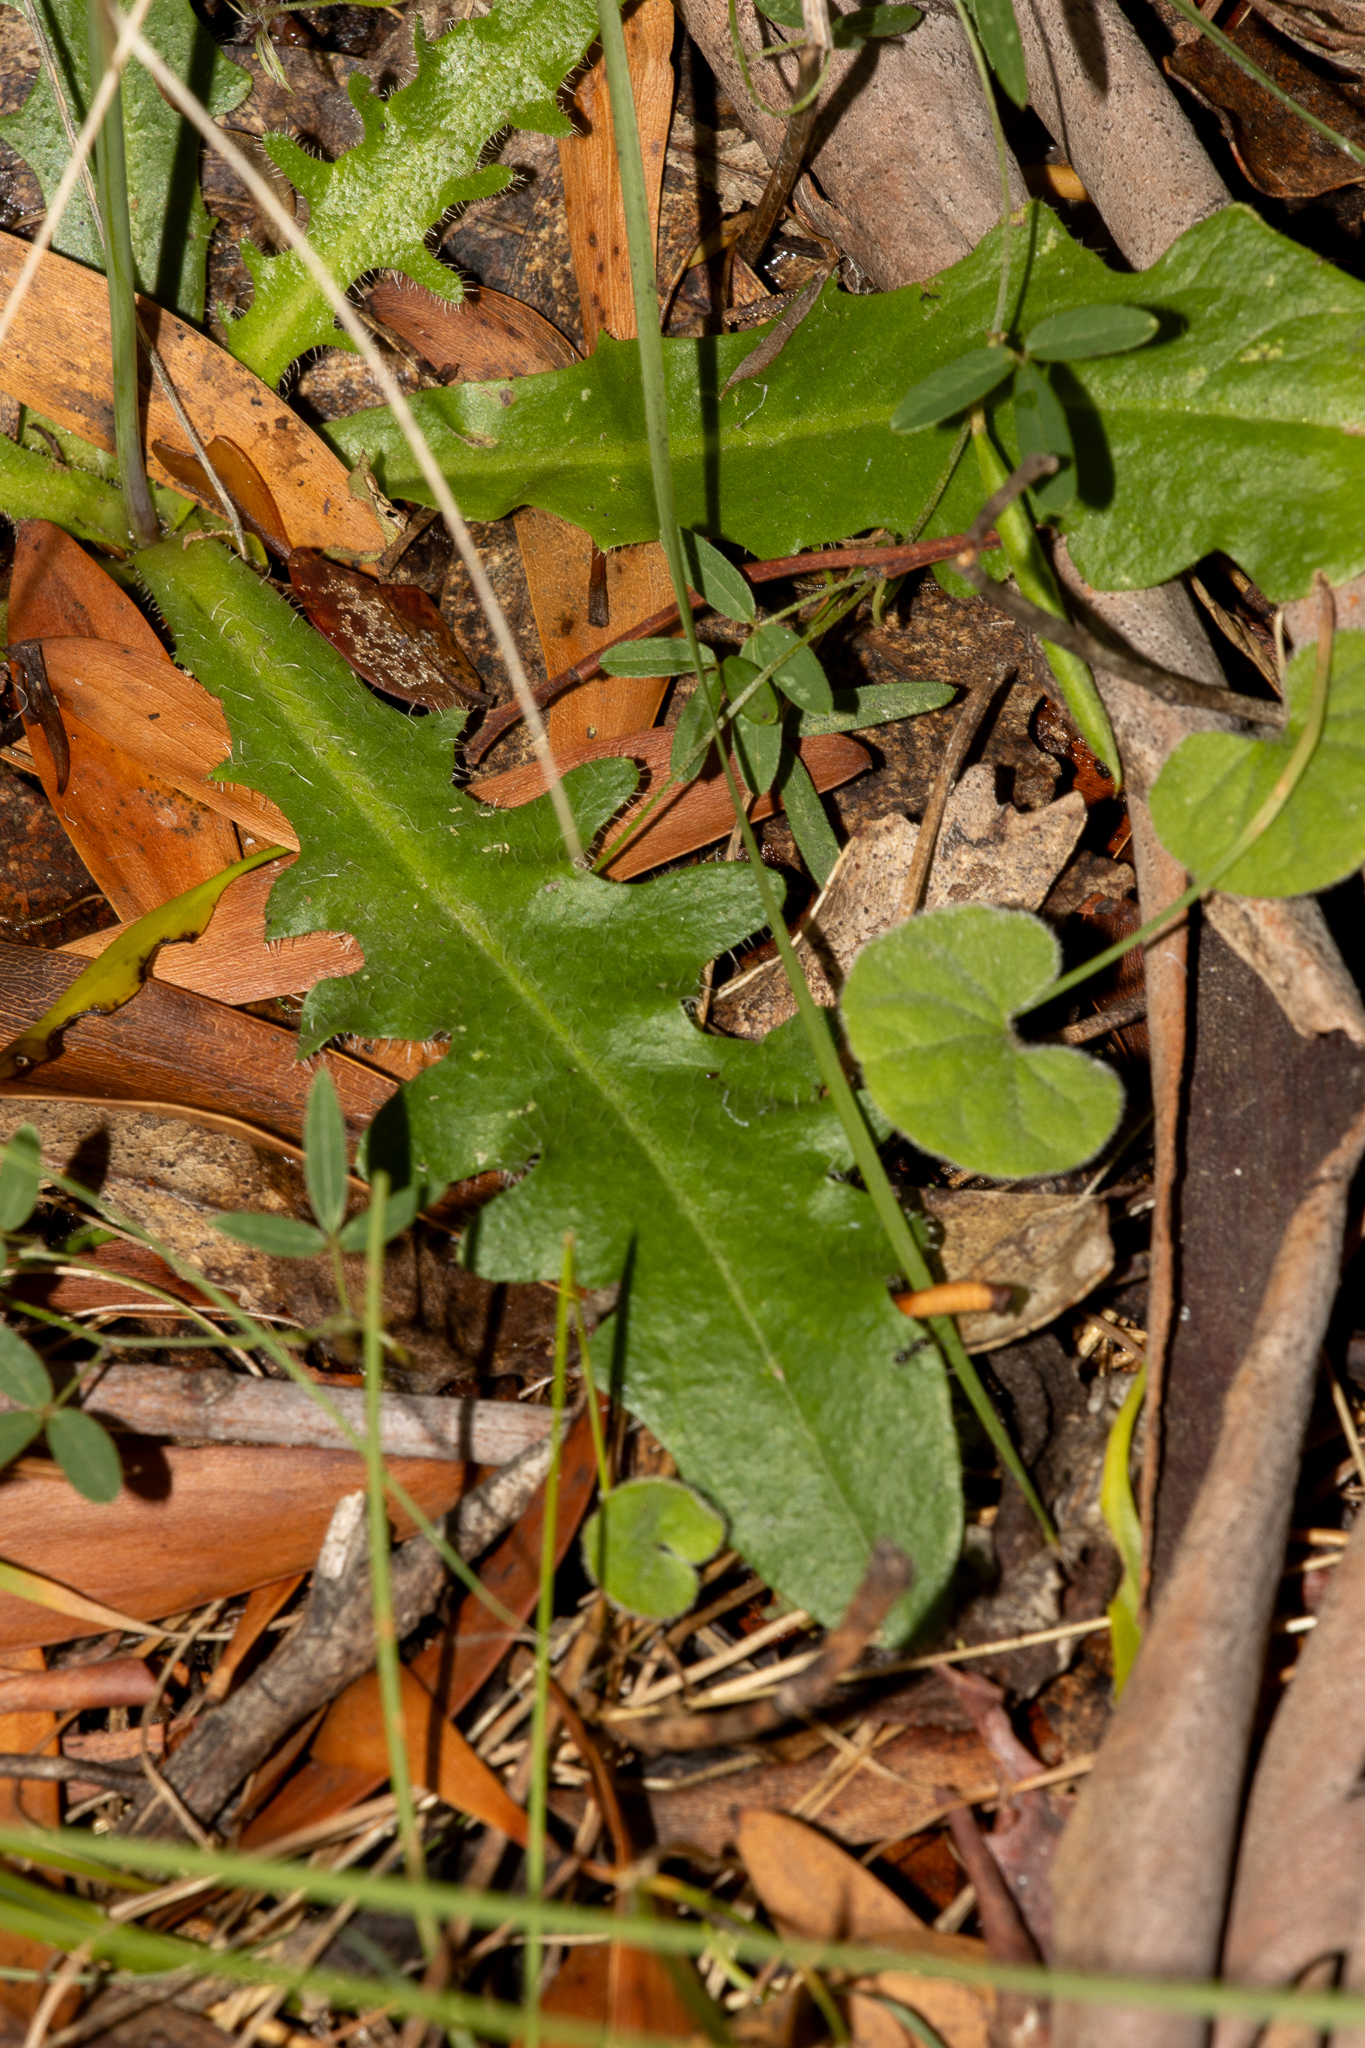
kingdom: Plantae
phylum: Tracheophyta
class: Magnoliopsida
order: Asterales
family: Asteraceae
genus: Hypochaeris
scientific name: Hypochaeris radicata
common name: Flatweed
